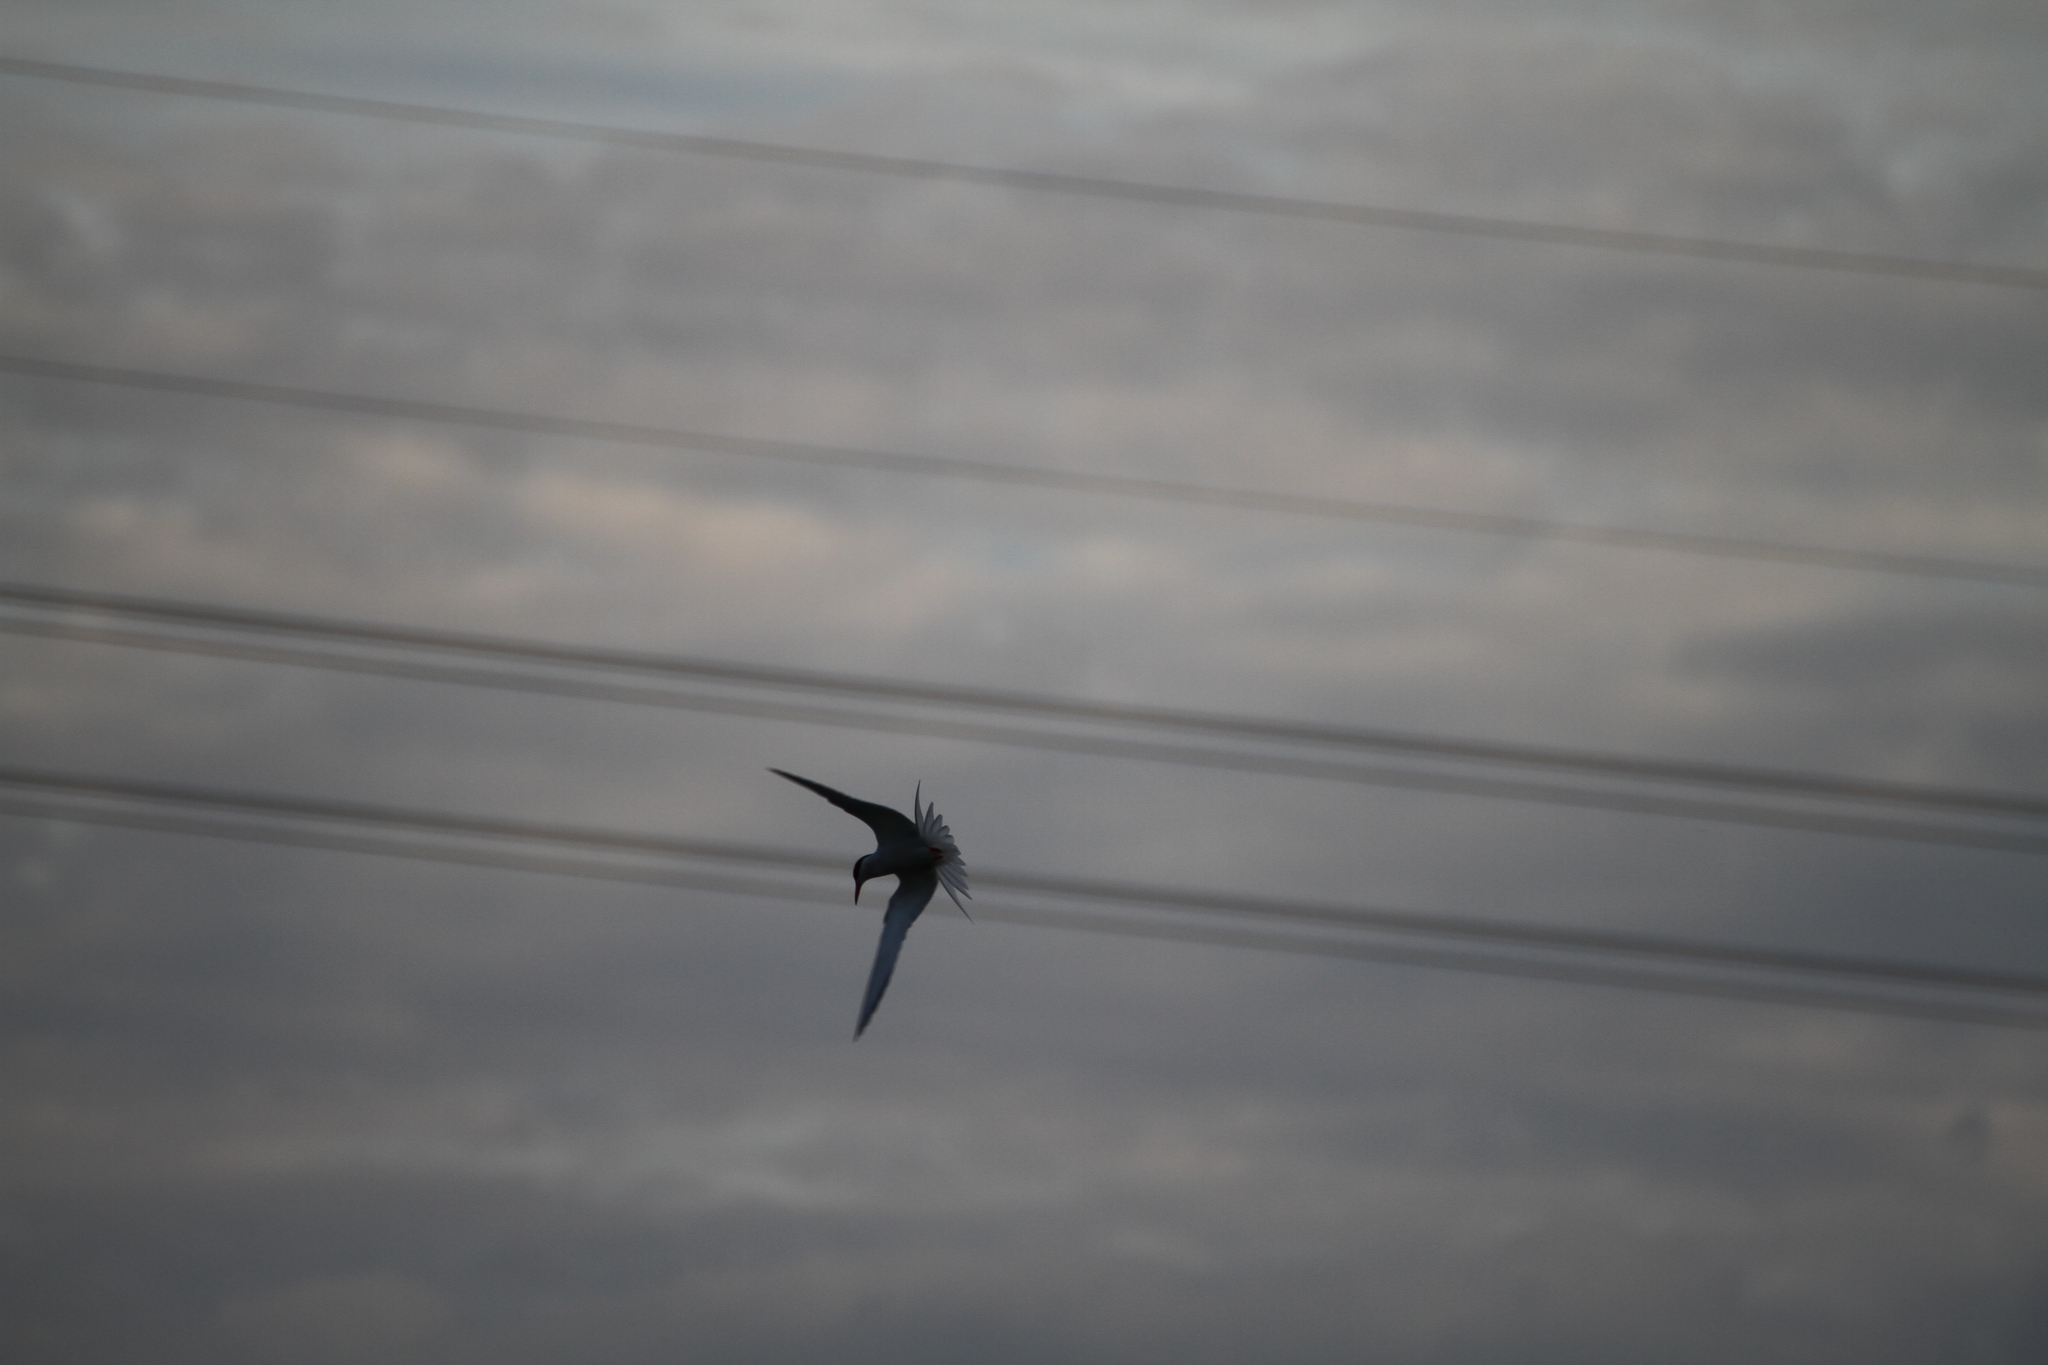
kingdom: Animalia
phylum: Chordata
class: Aves
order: Charadriiformes
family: Laridae
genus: Sterna
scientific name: Sterna hirundo
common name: Common tern
